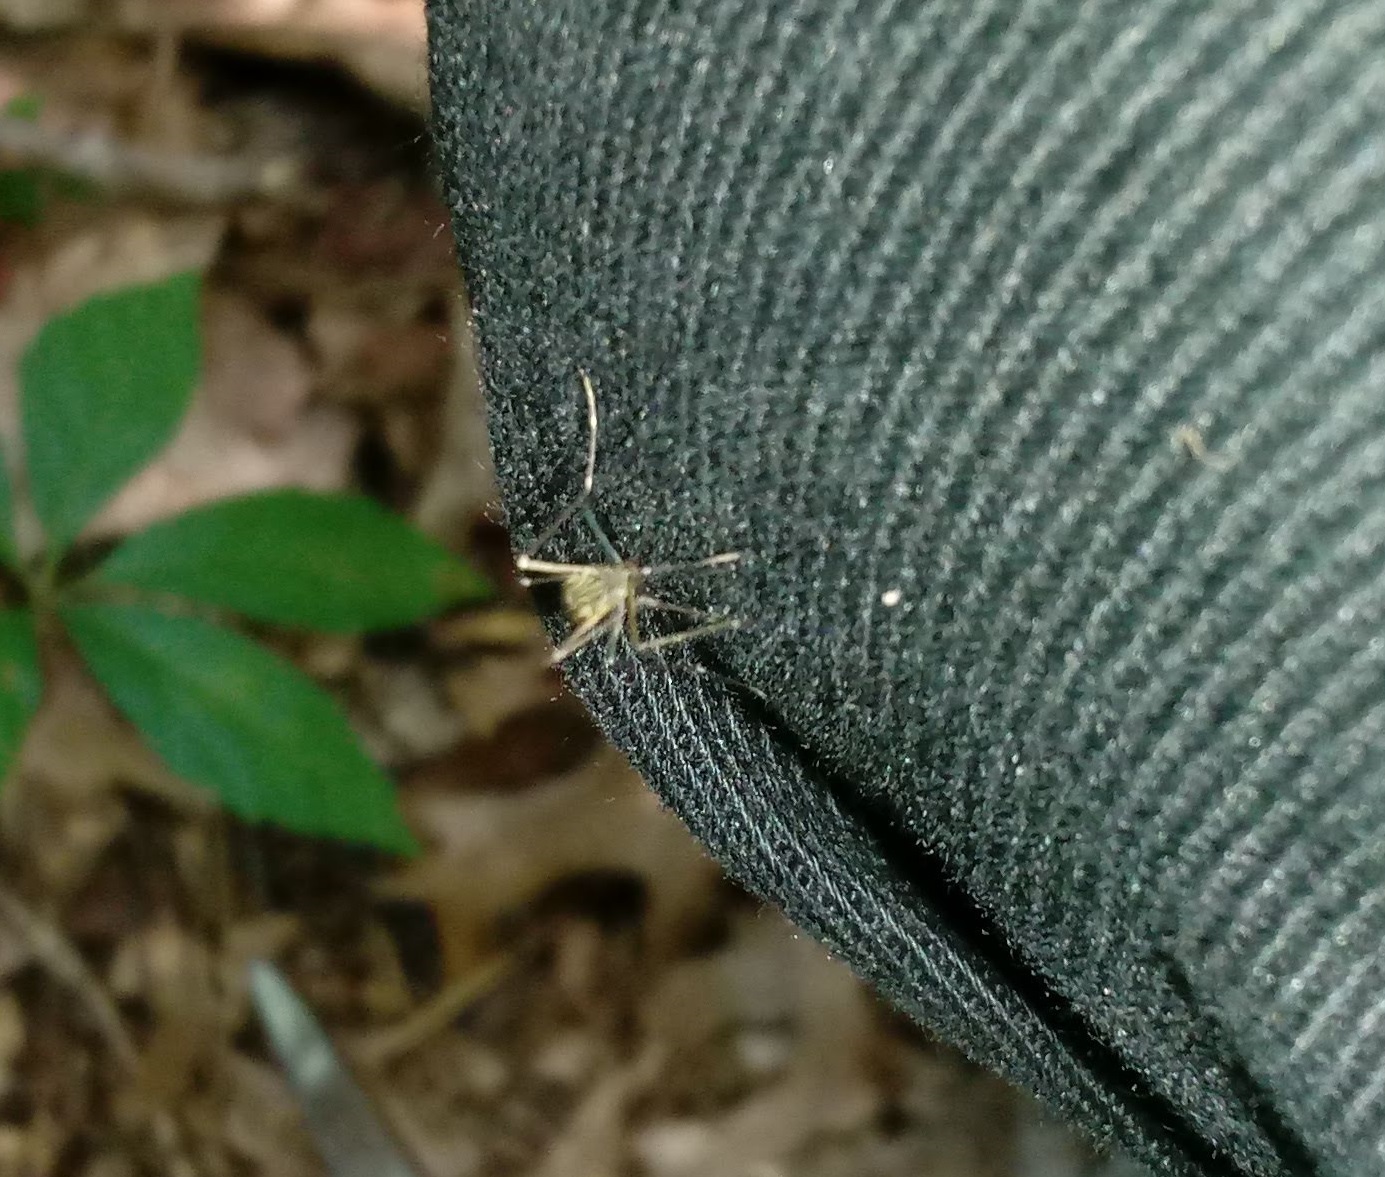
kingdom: Animalia
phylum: Arthropoda
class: Insecta
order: Diptera
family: Culicidae
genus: Aedes
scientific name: Aedes japonicus
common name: Asian bush mosquito
